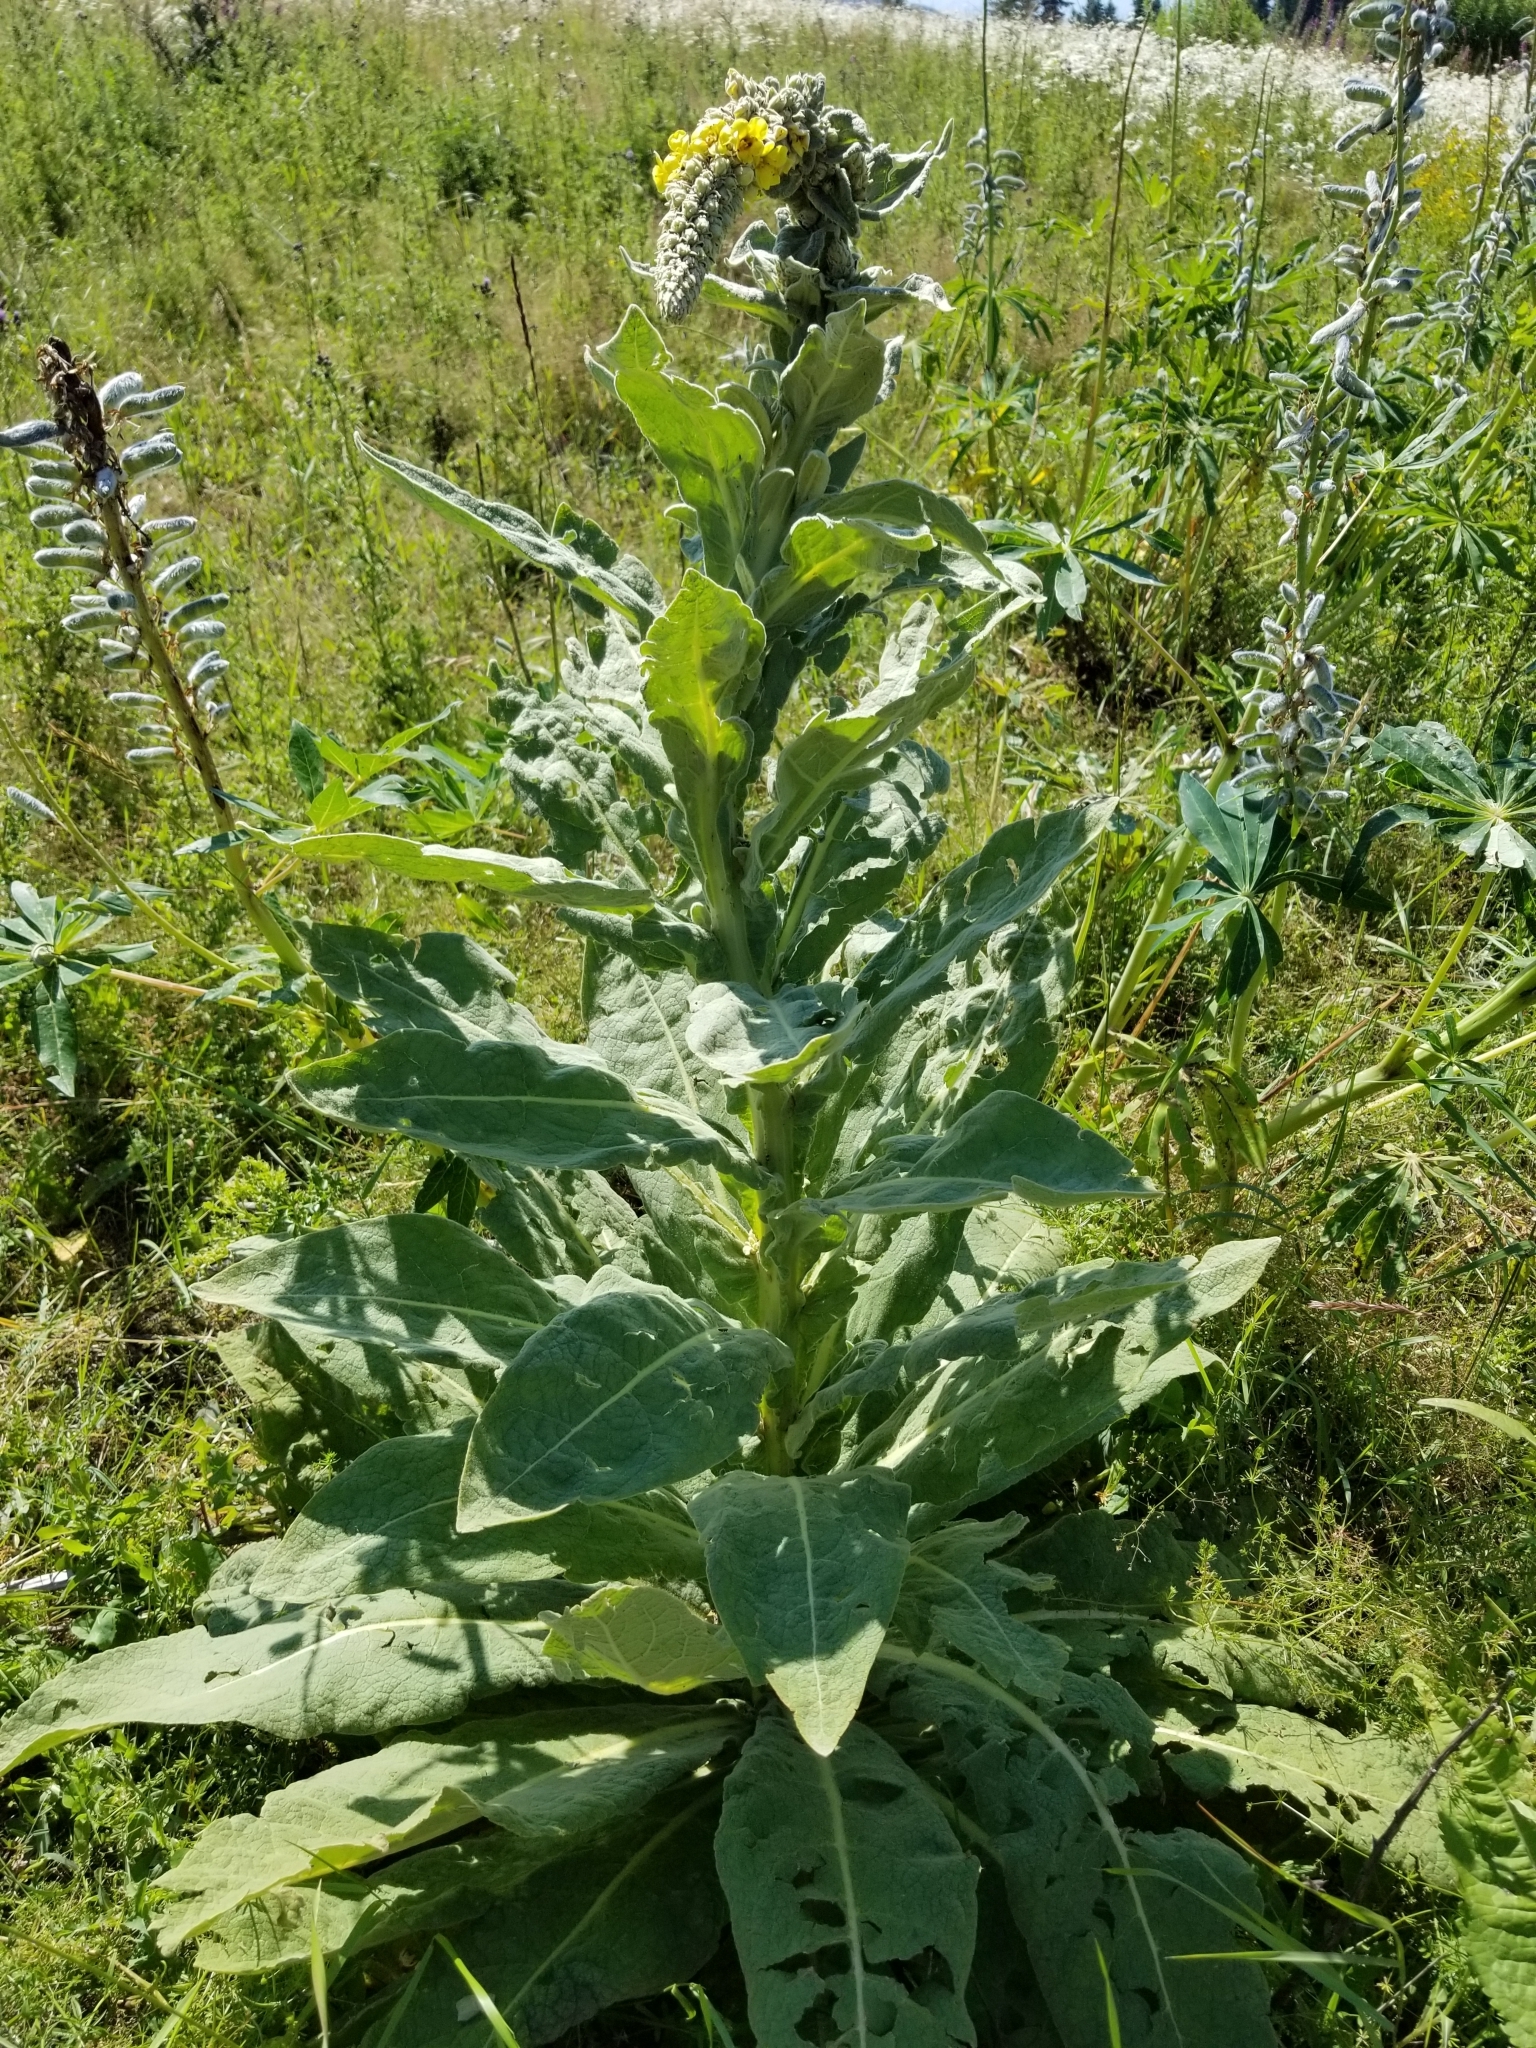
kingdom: Plantae
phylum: Tracheophyta
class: Magnoliopsida
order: Lamiales
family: Scrophulariaceae
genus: Verbascum
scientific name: Verbascum thapsus
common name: Common mullein
